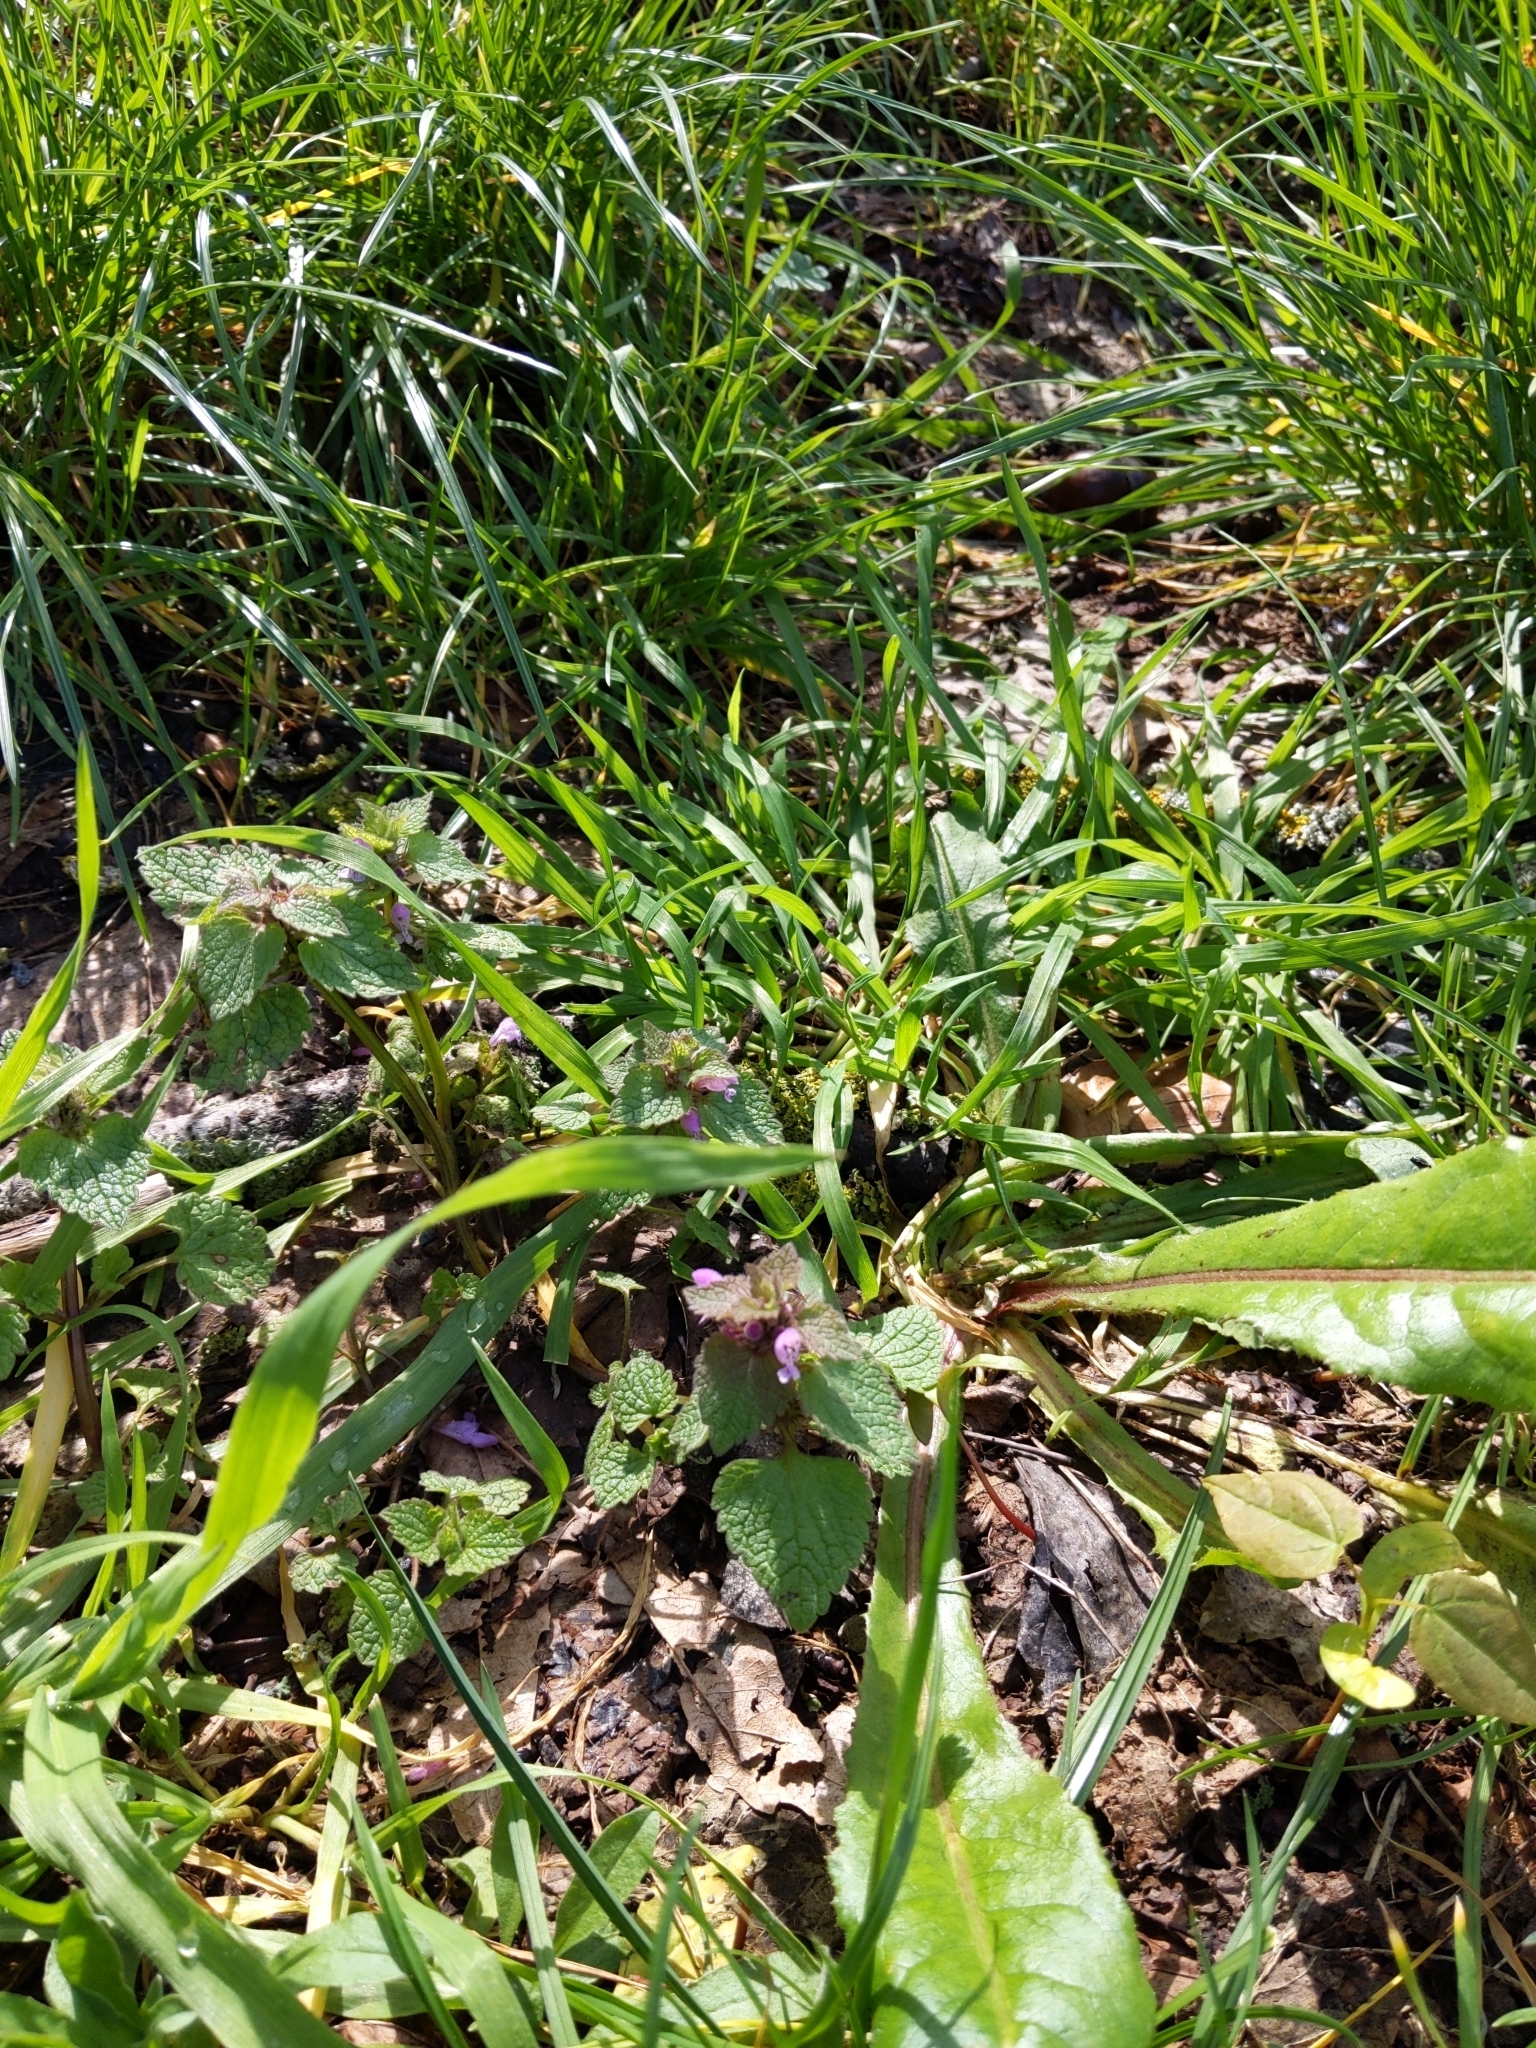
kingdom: Plantae
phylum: Tracheophyta
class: Magnoliopsida
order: Lamiales
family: Lamiaceae
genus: Lamium
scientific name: Lamium purpureum
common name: Red dead-nettle
